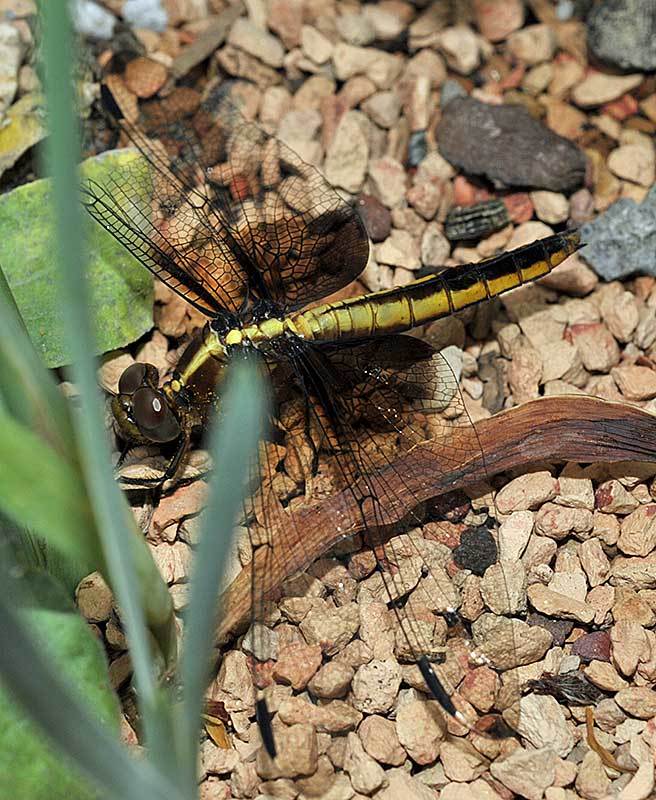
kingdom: Animalia
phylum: Arthropoda
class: Insecta
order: Odonata
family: Libellulidae
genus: Libellula
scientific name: Libellula luctuosa
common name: Widow skimmer
